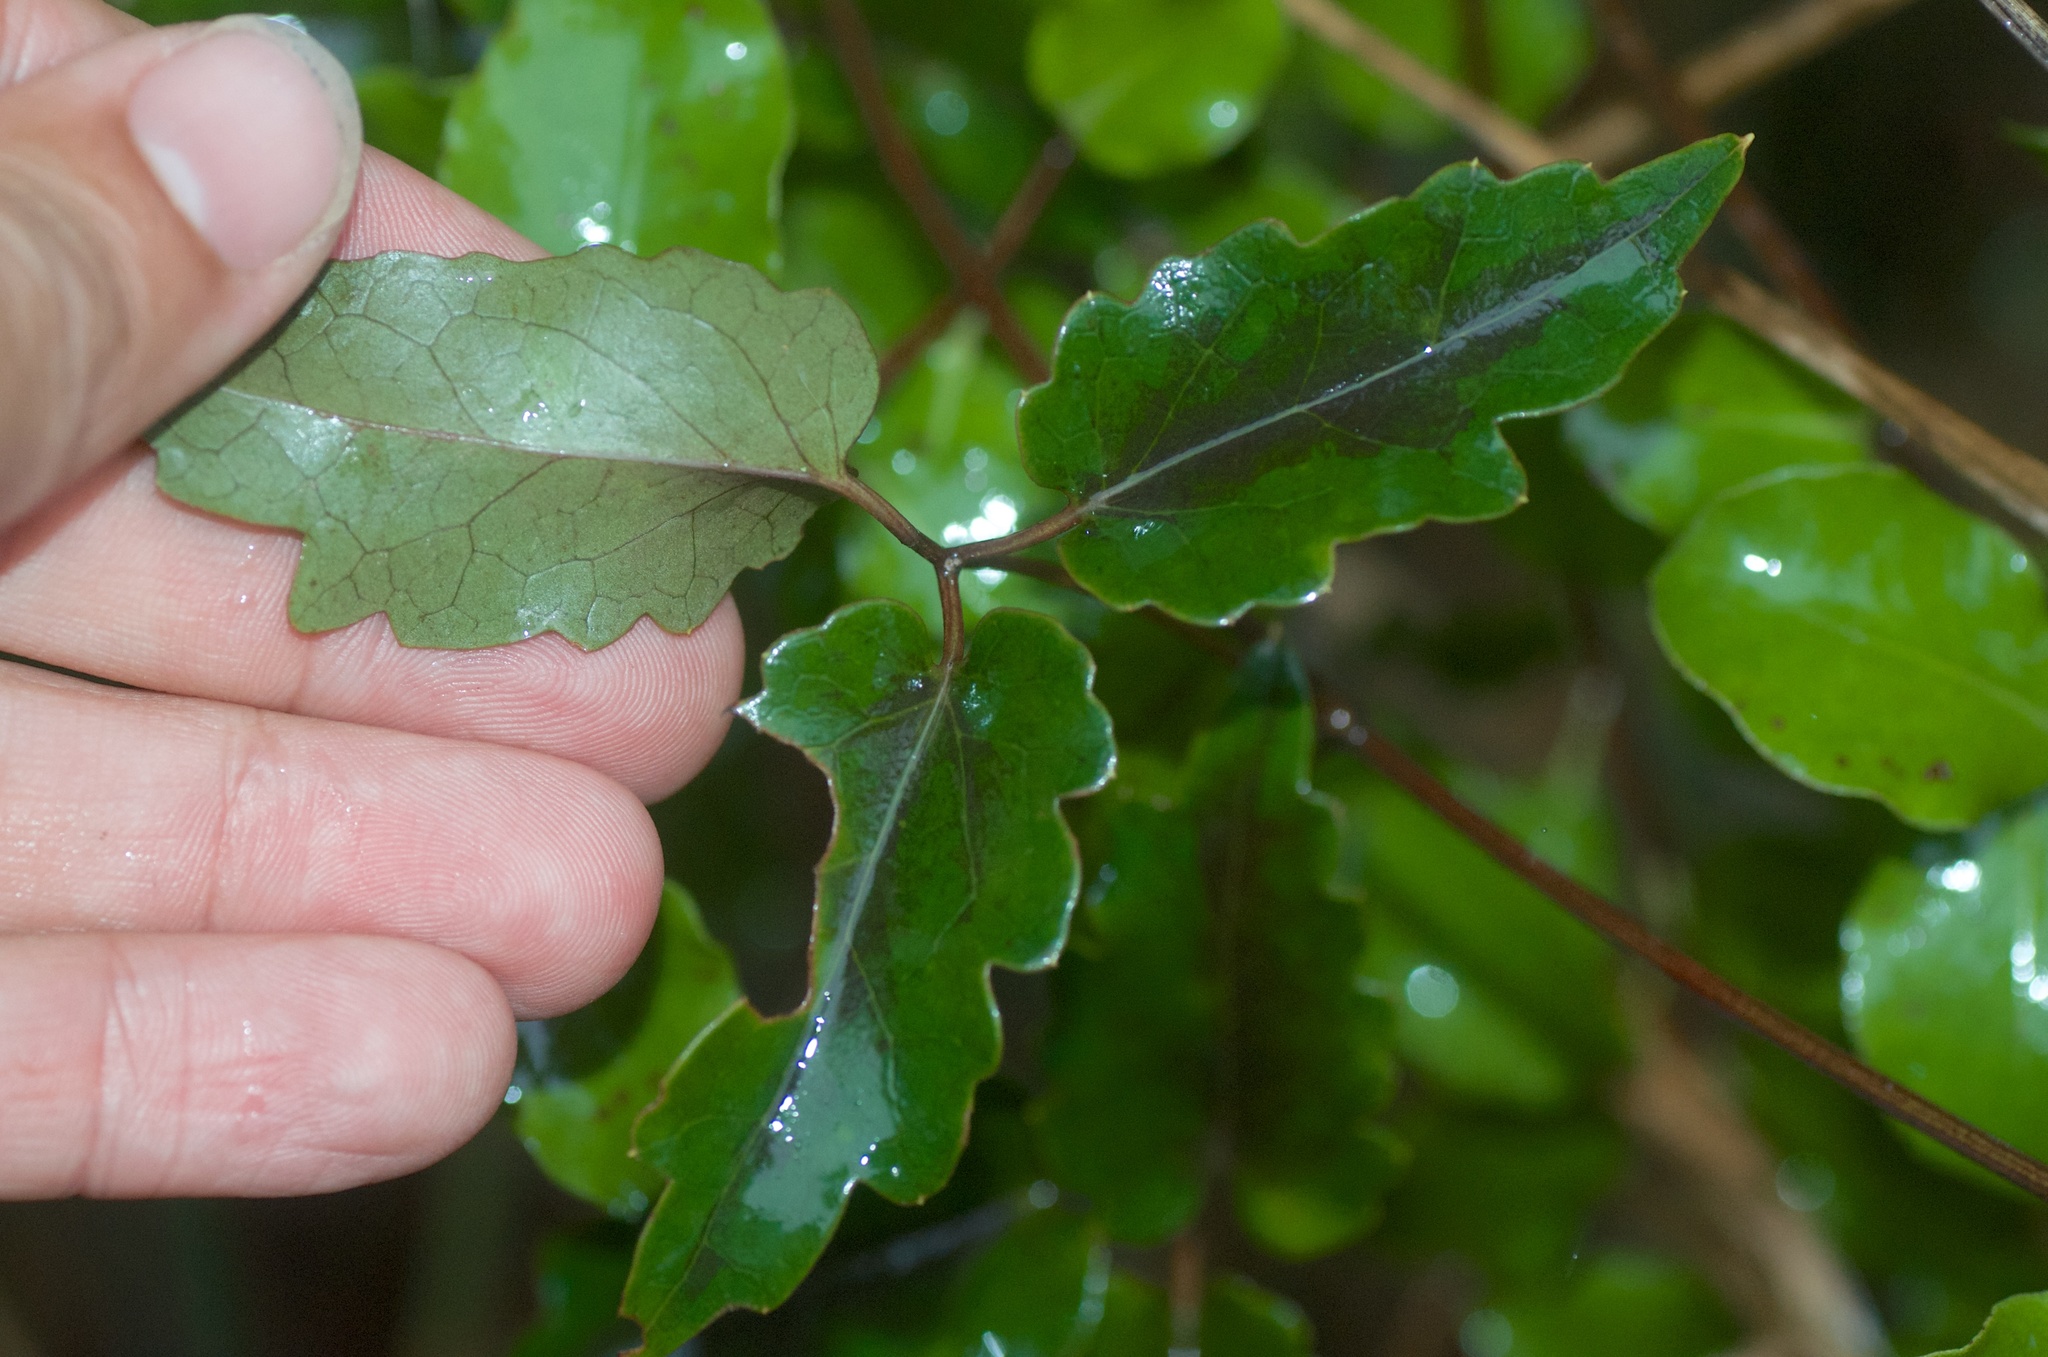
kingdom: Plantae
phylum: Tracheophyta
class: Magnoliopsida
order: Ranunculales
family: Ranunculaceae
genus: Clematis
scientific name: Clematis paniculata
